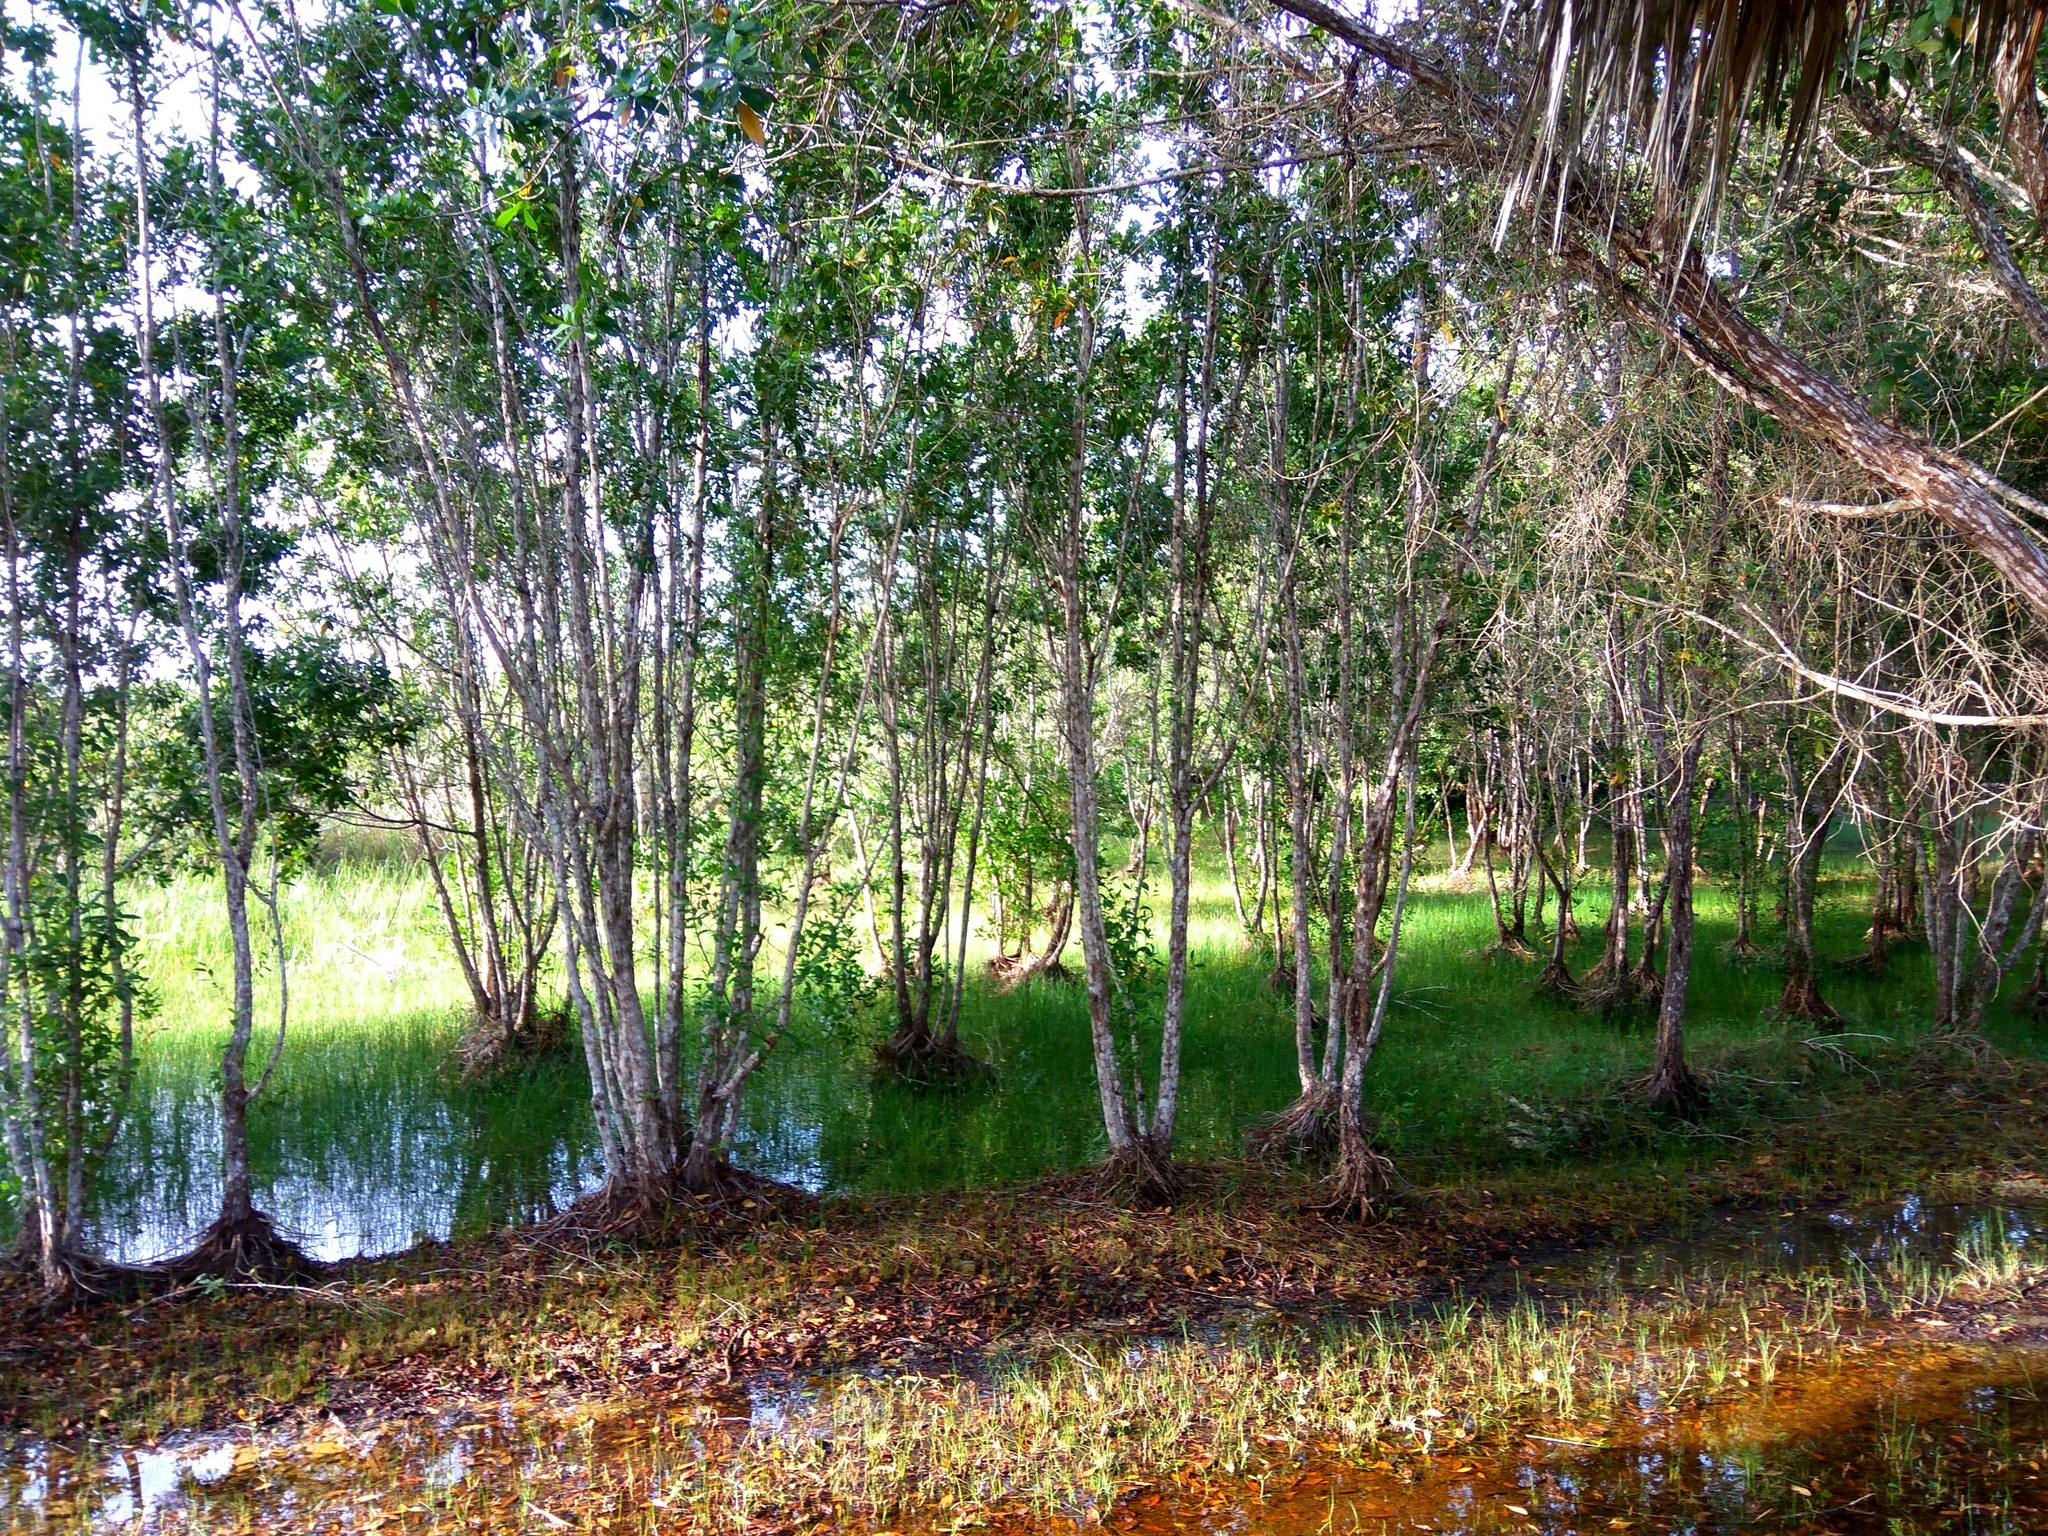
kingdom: Plantae
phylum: Tracheophyta
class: Magnoliopsida
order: Myrtales
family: Combretaceae
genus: Conocarpus
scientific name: Conocarpus erectus
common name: Button mangrove
